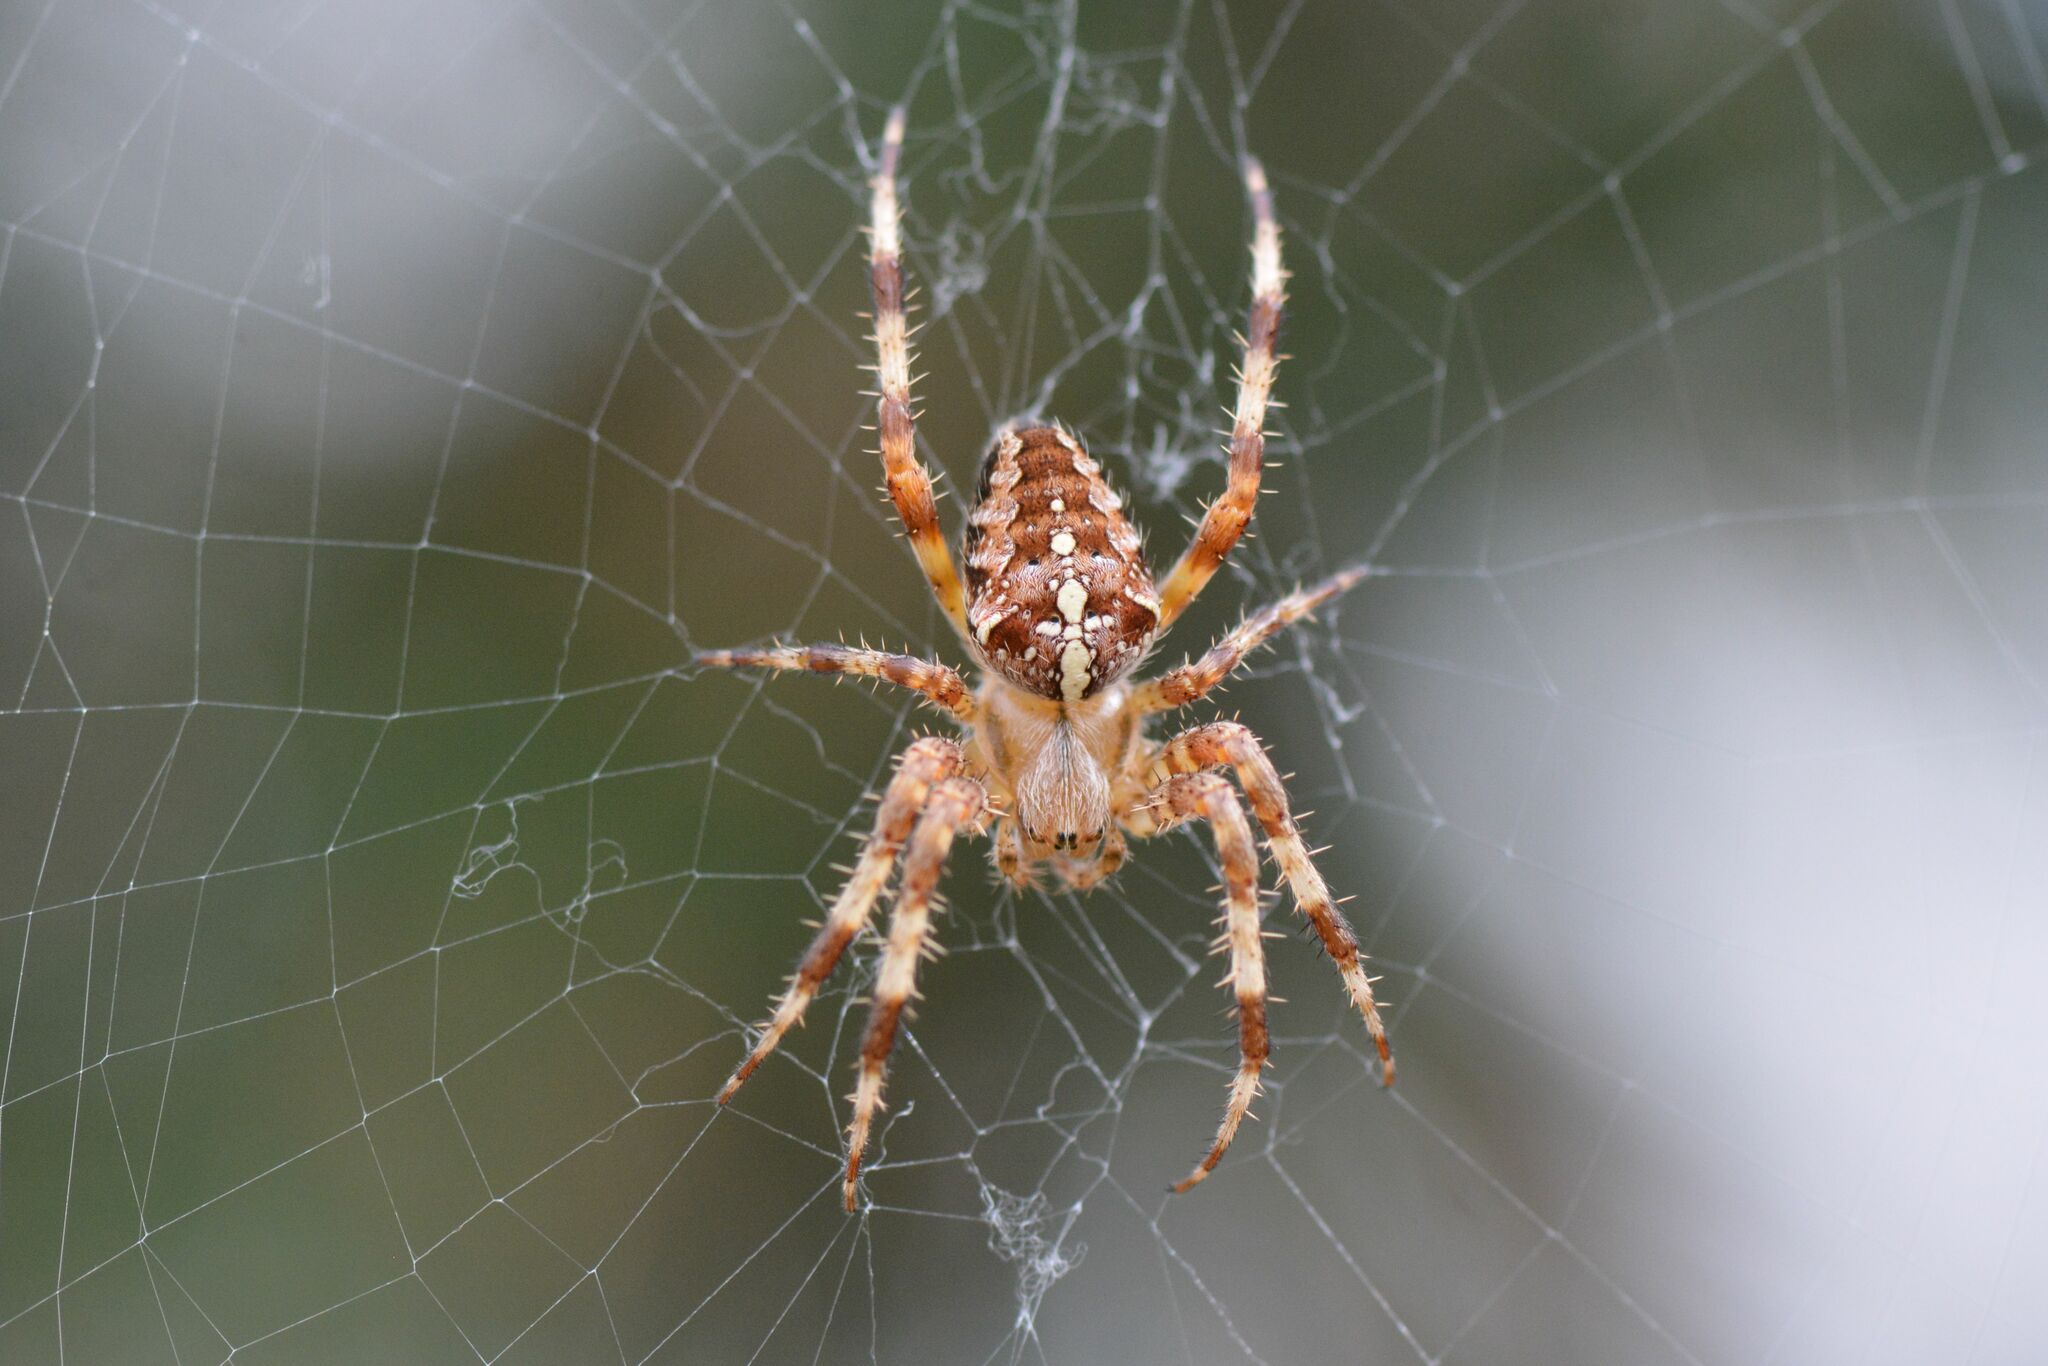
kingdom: Animalia
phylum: Arthropoda
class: Arachnida
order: Araneae
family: Araneidae
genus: Araneus
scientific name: Araneus diadematus
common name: Cross orbweaver
